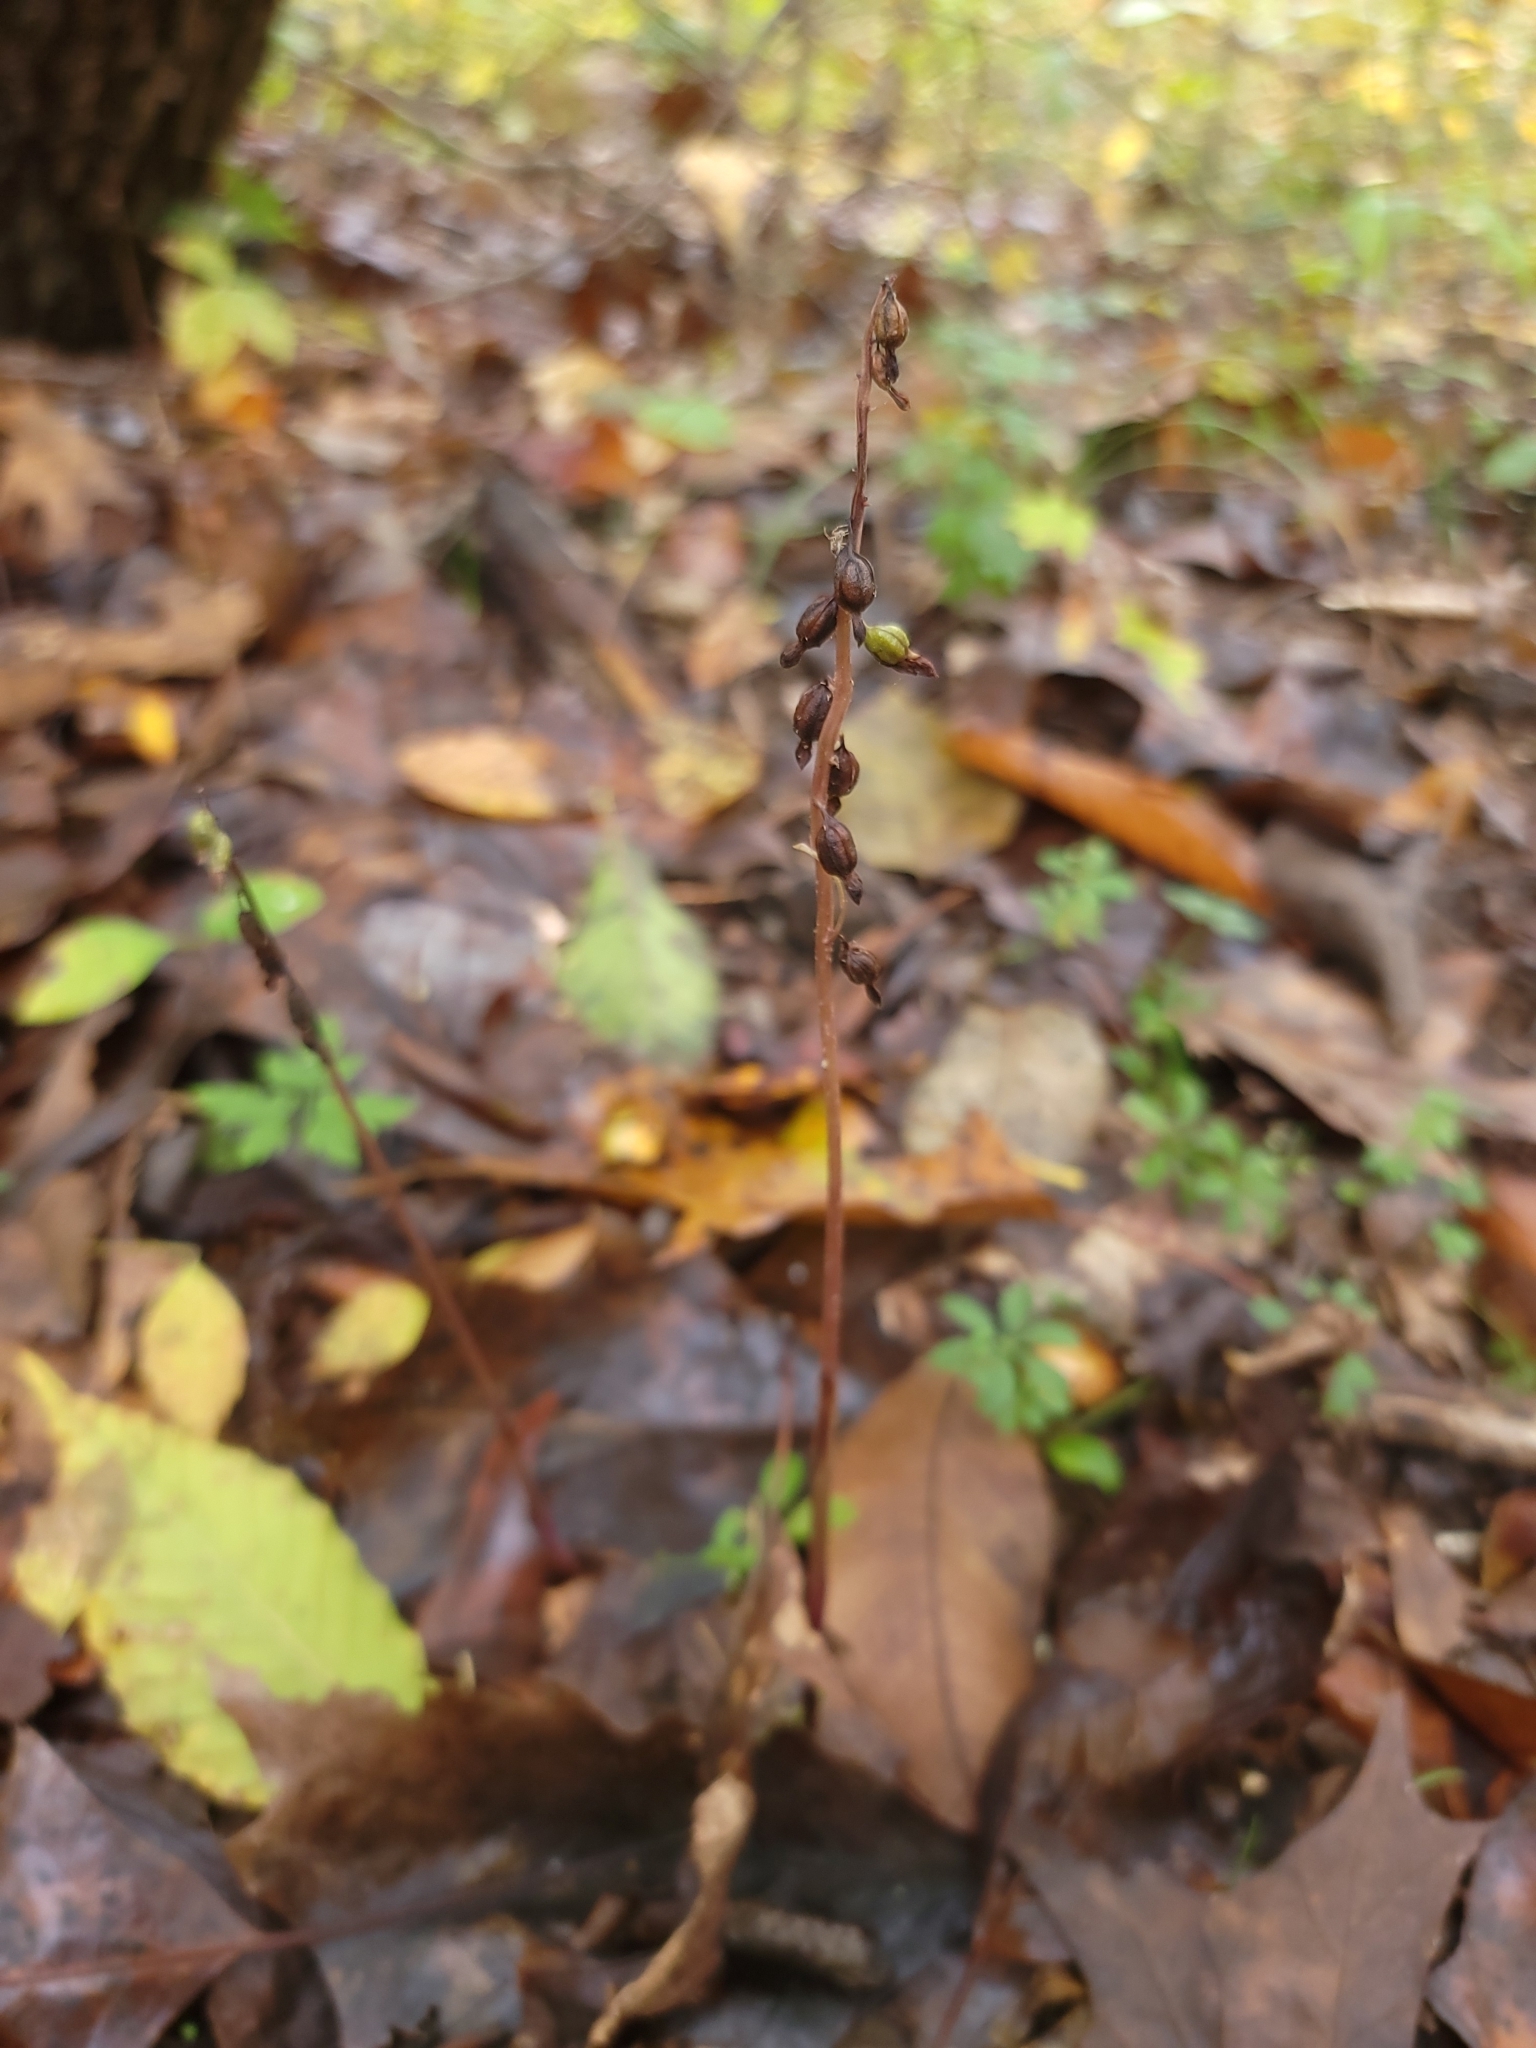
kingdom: Plantae
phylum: Tracheophyta
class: Liliopsida
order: Asparagales
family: Orchidaceae
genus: Corallorhiza
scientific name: Corallorhiza odontorhiza
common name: Autumn coralroot
